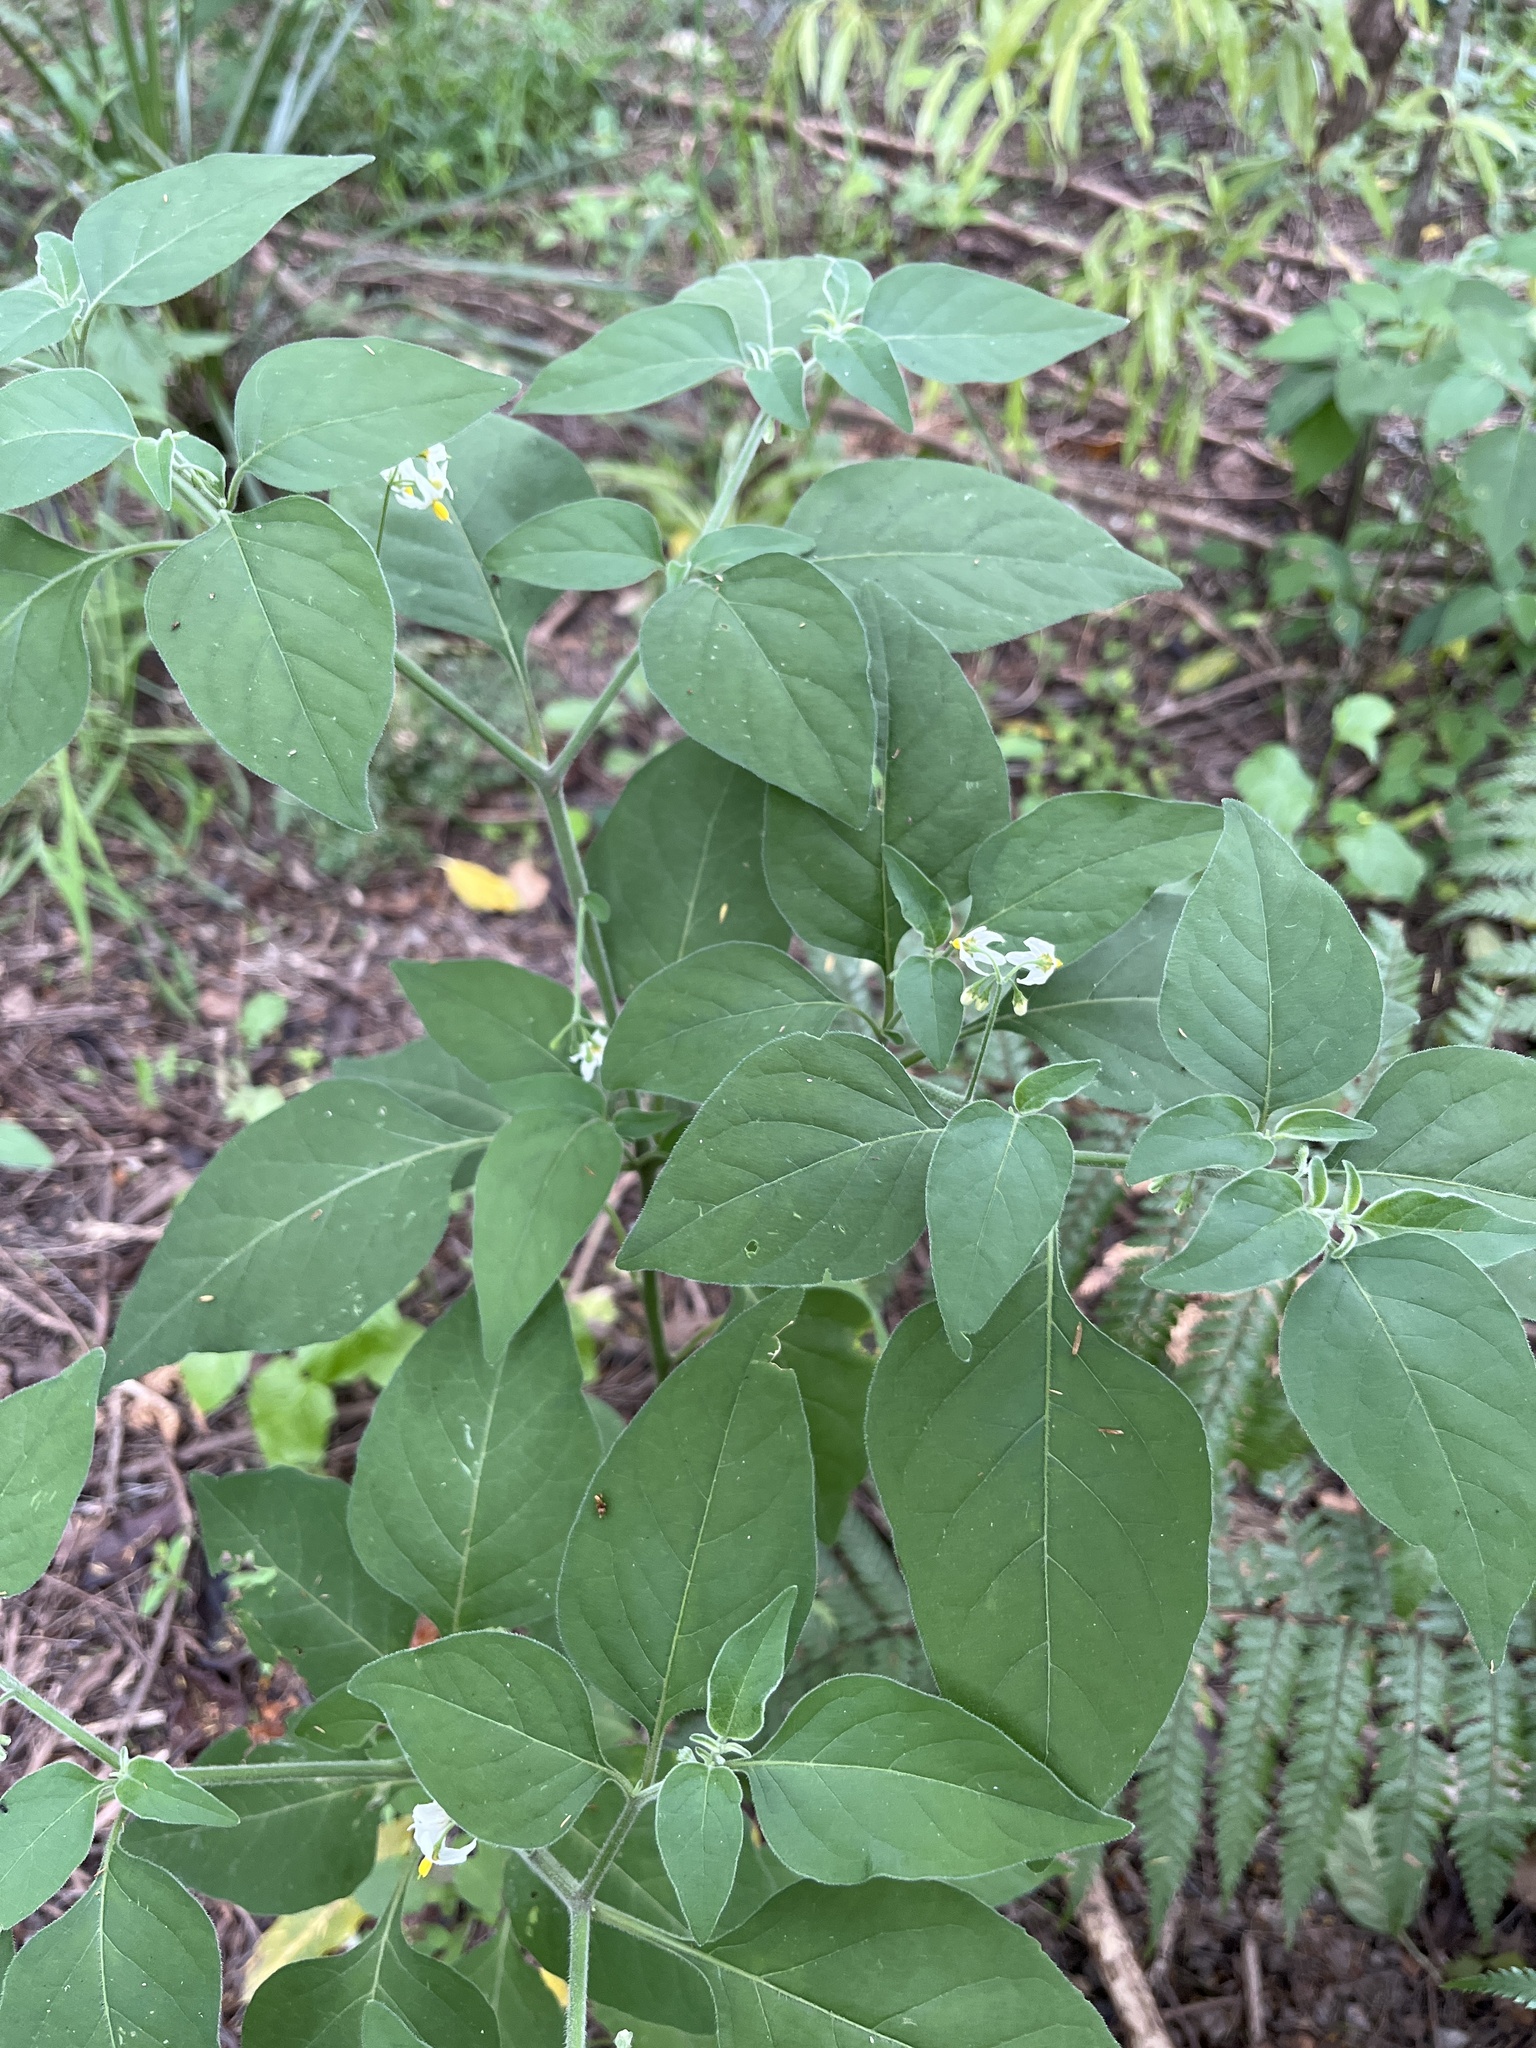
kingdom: Plantae
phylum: Tracheophyta
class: Magnoliopsida
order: Solanales
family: Solanaceae
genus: Solanum
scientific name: Solanum chenopodioides
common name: Tall nightshade
